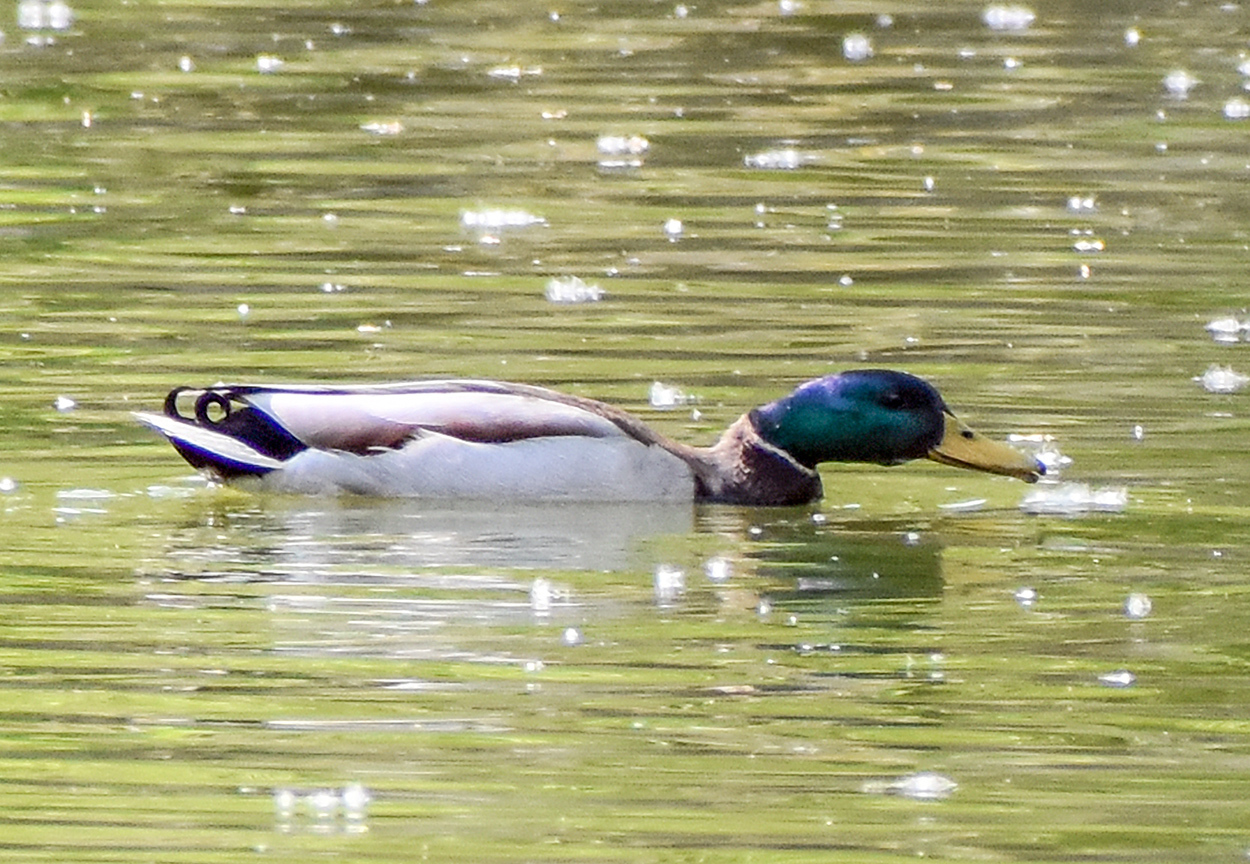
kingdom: Animalia
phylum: Chordata
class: Aves
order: Anseriformes
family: Anatidae
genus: Anas
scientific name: Anas platyrhynchos
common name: Mallard
